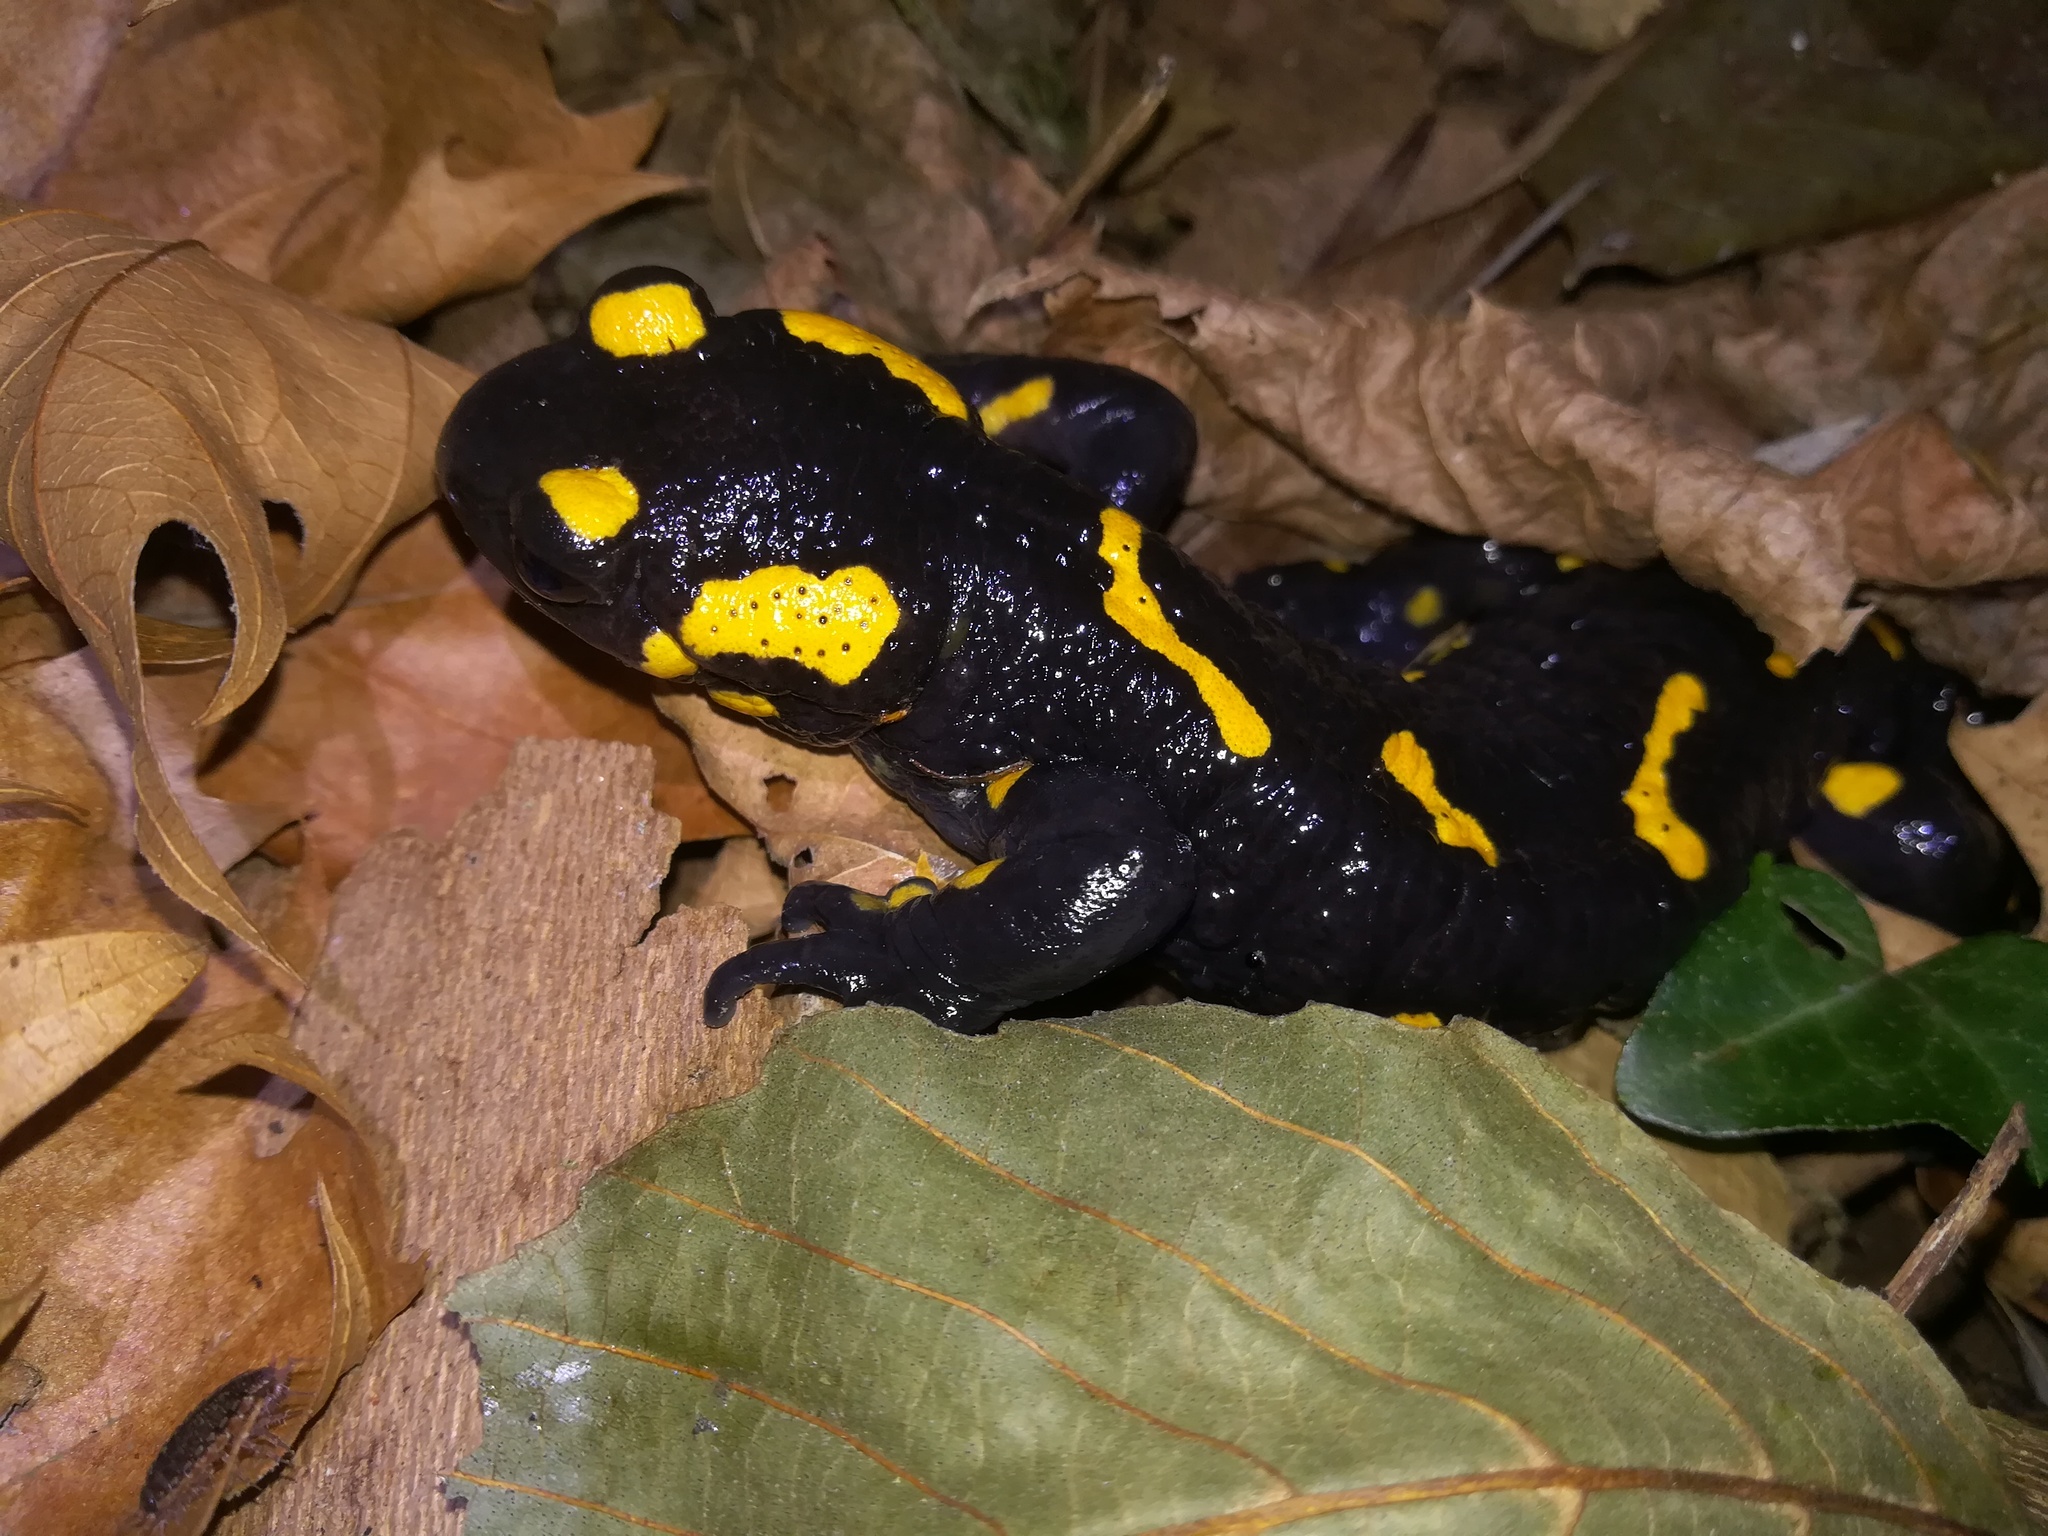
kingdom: Animalia
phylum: Chordata
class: Amphibia
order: Caudata
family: Salamandridae
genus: Salamandra
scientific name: Salamandra salamandra
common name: Fire salamander
